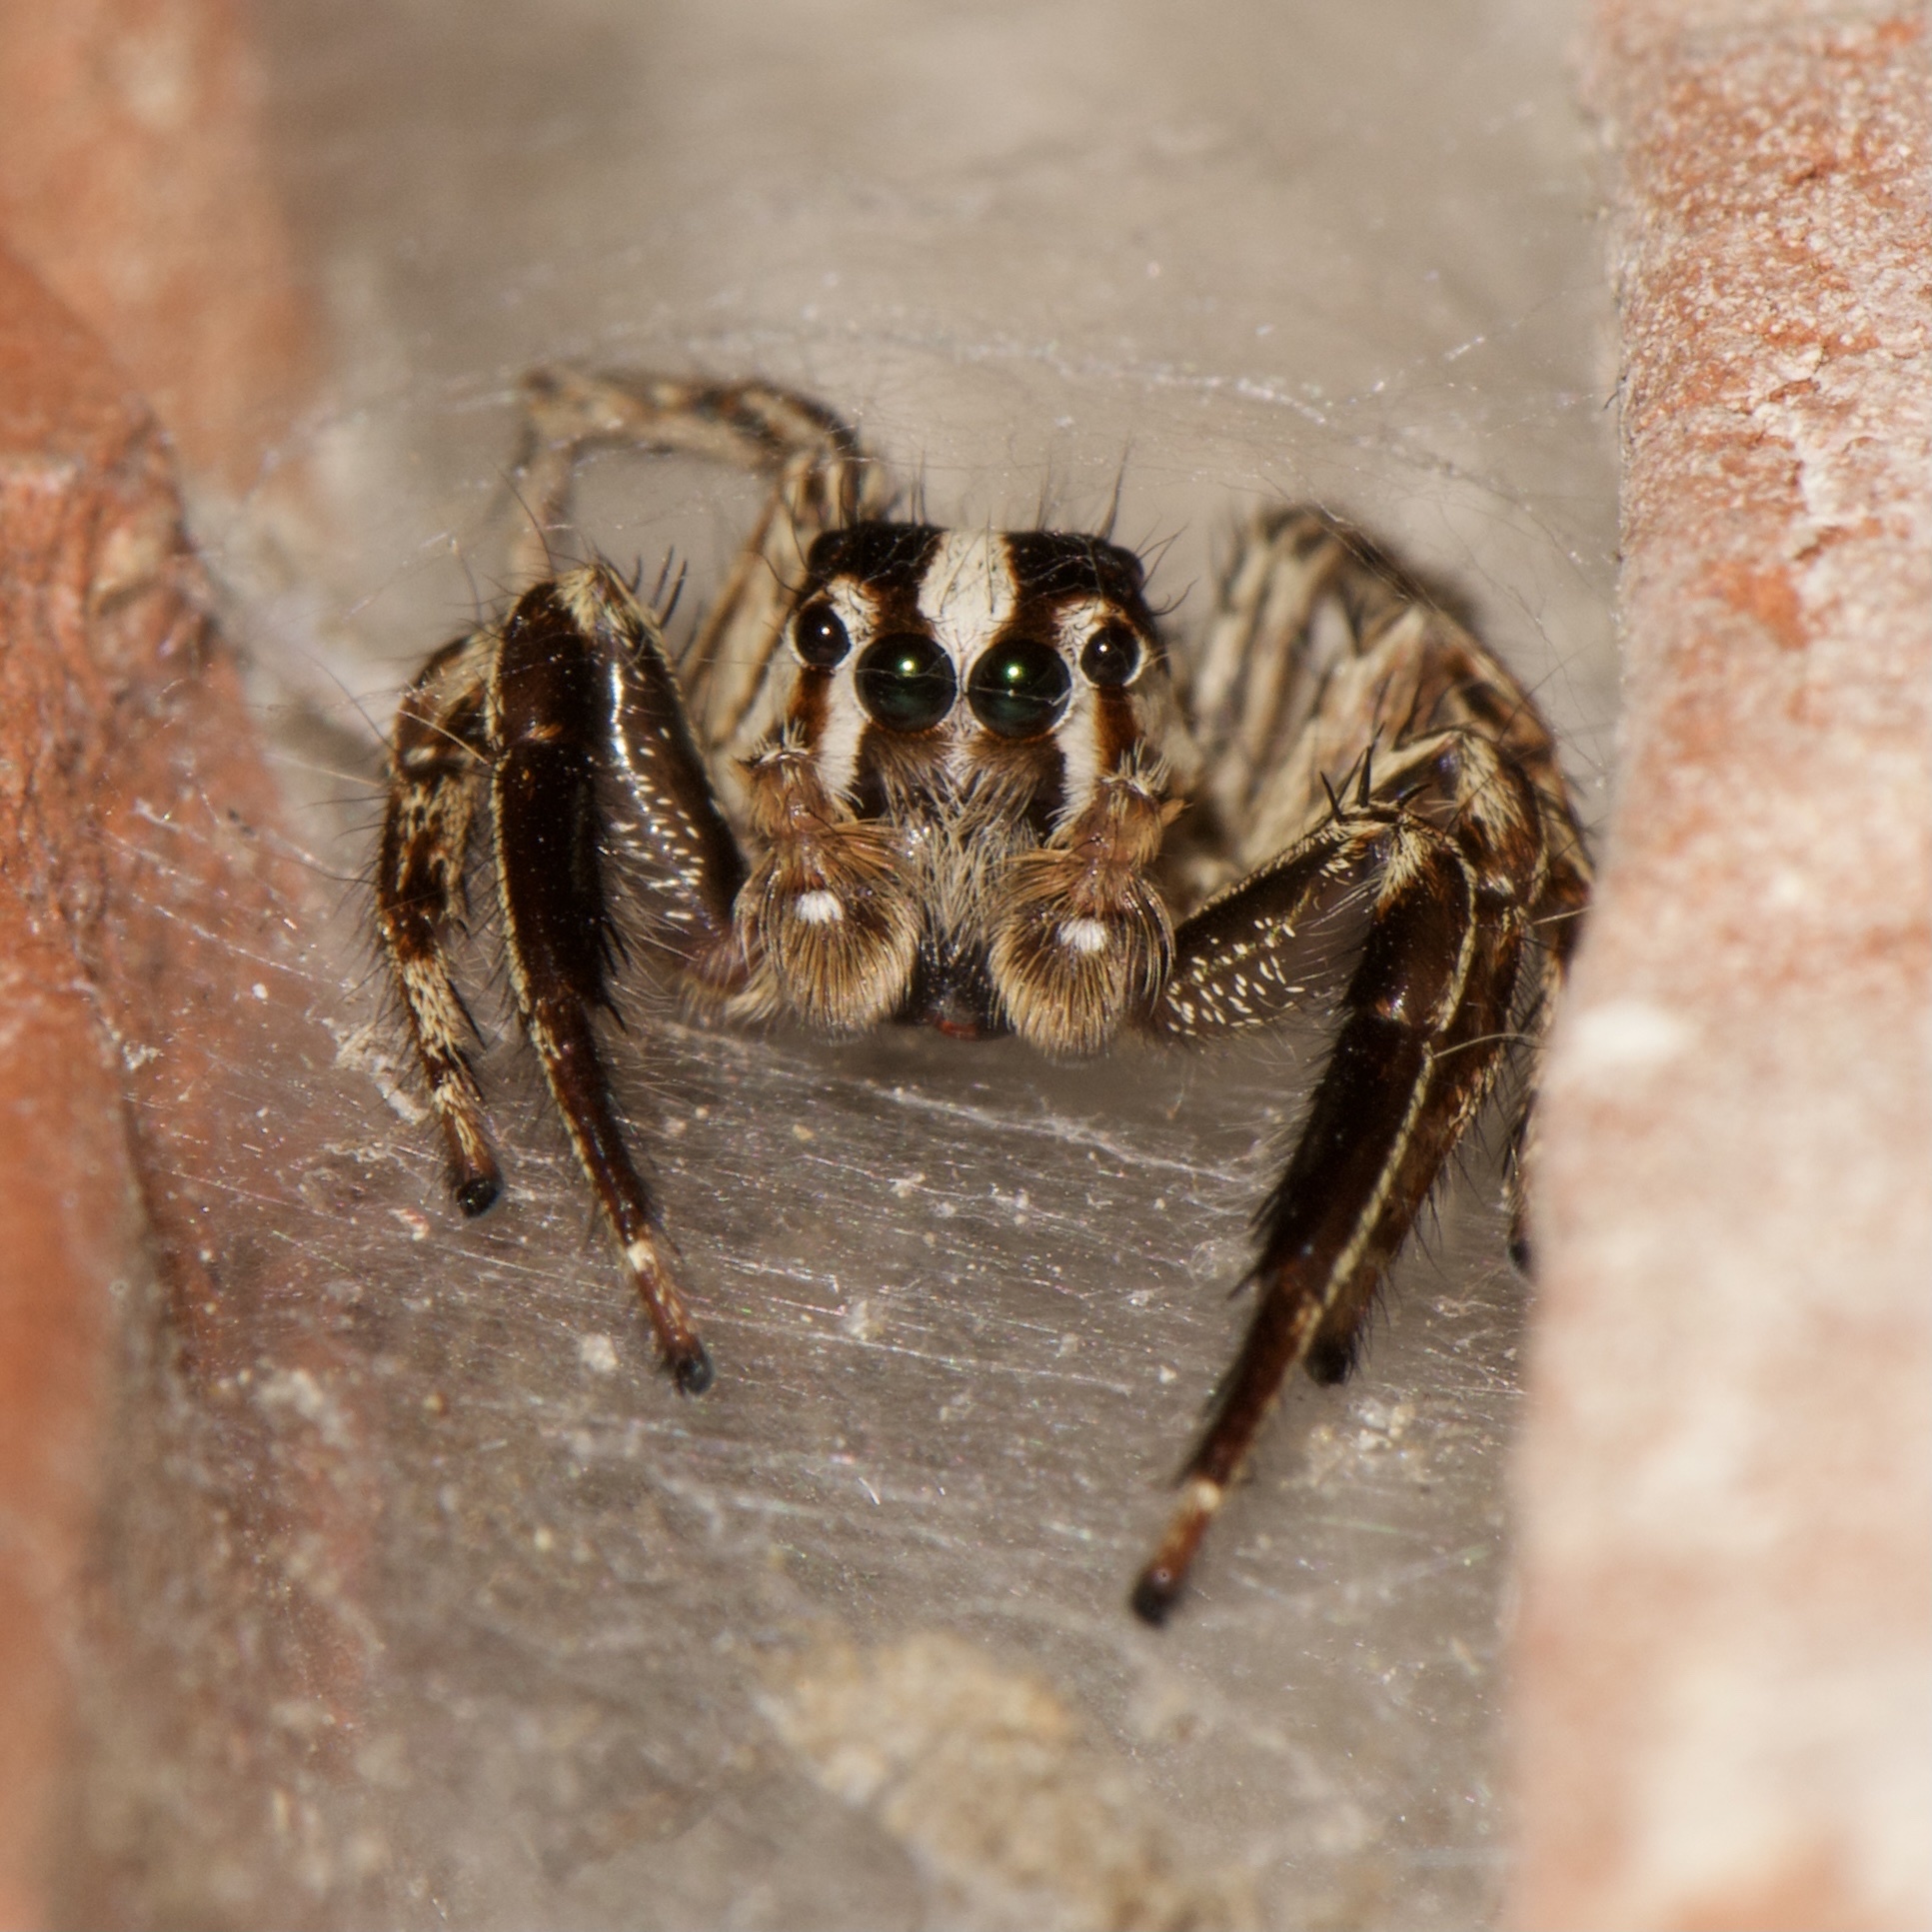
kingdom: Animalia
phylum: Arthropoda
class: Arachnida
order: Araneae
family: Salticidae
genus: Plexippus
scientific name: Plexippus paykulli
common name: Pantropical jumper
